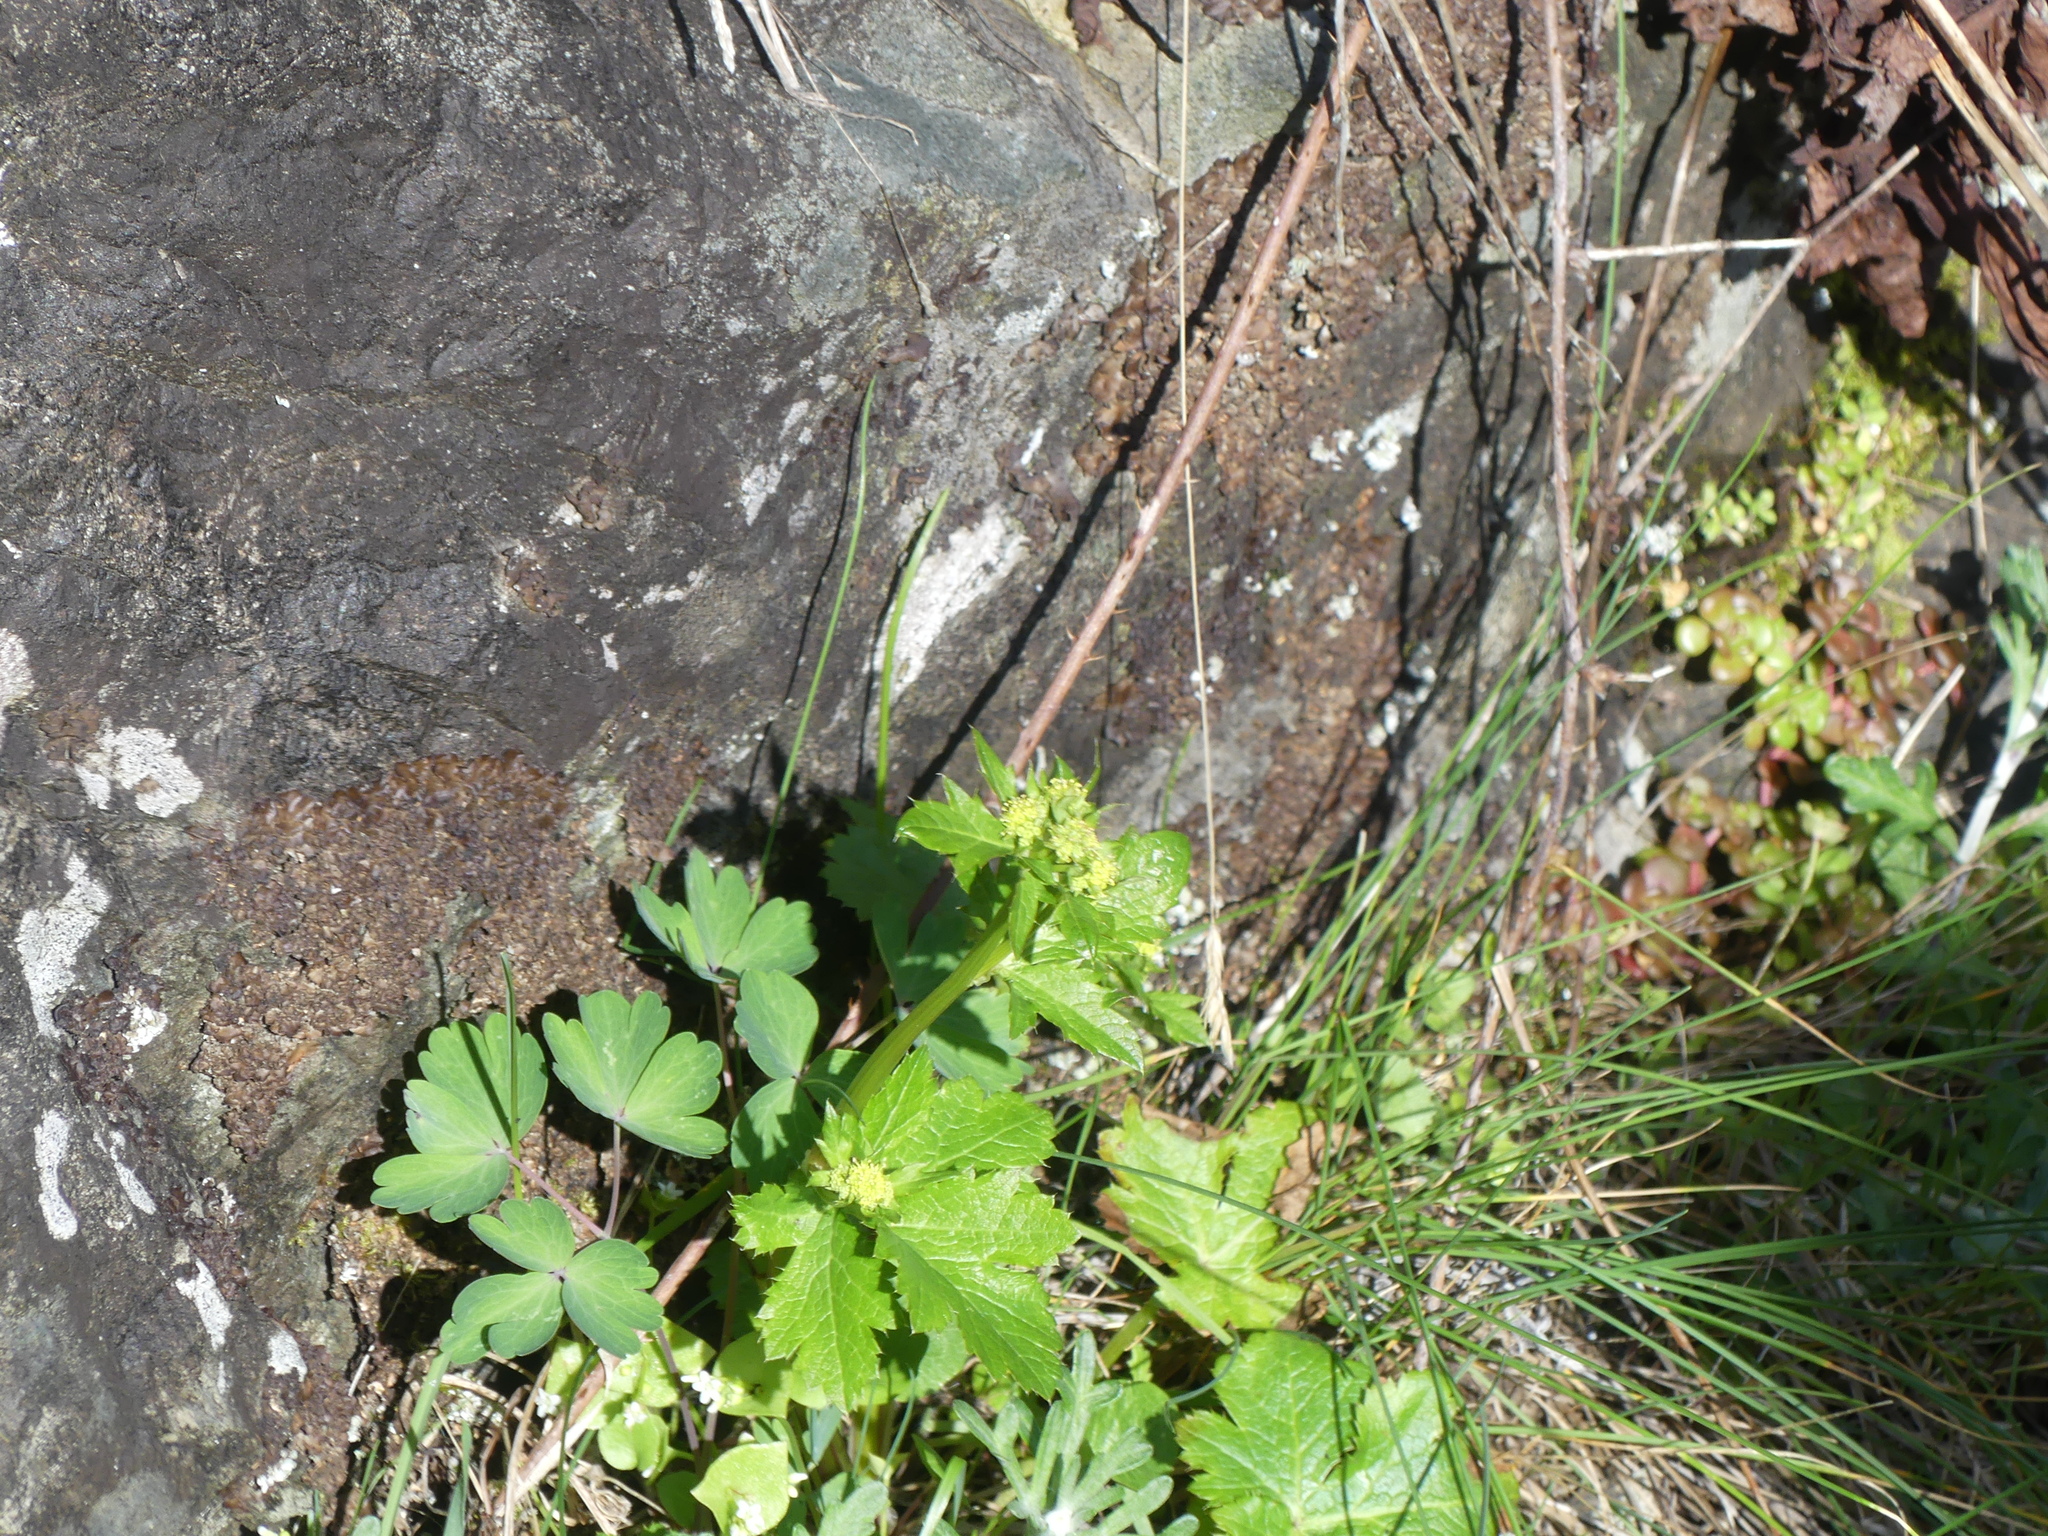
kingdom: Plantae
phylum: Tracheophyta
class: Magnoliopsida
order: Apiales
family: Apiaceae
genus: Sanicula
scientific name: Sanicula crassicaulis
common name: Western snakeroot
